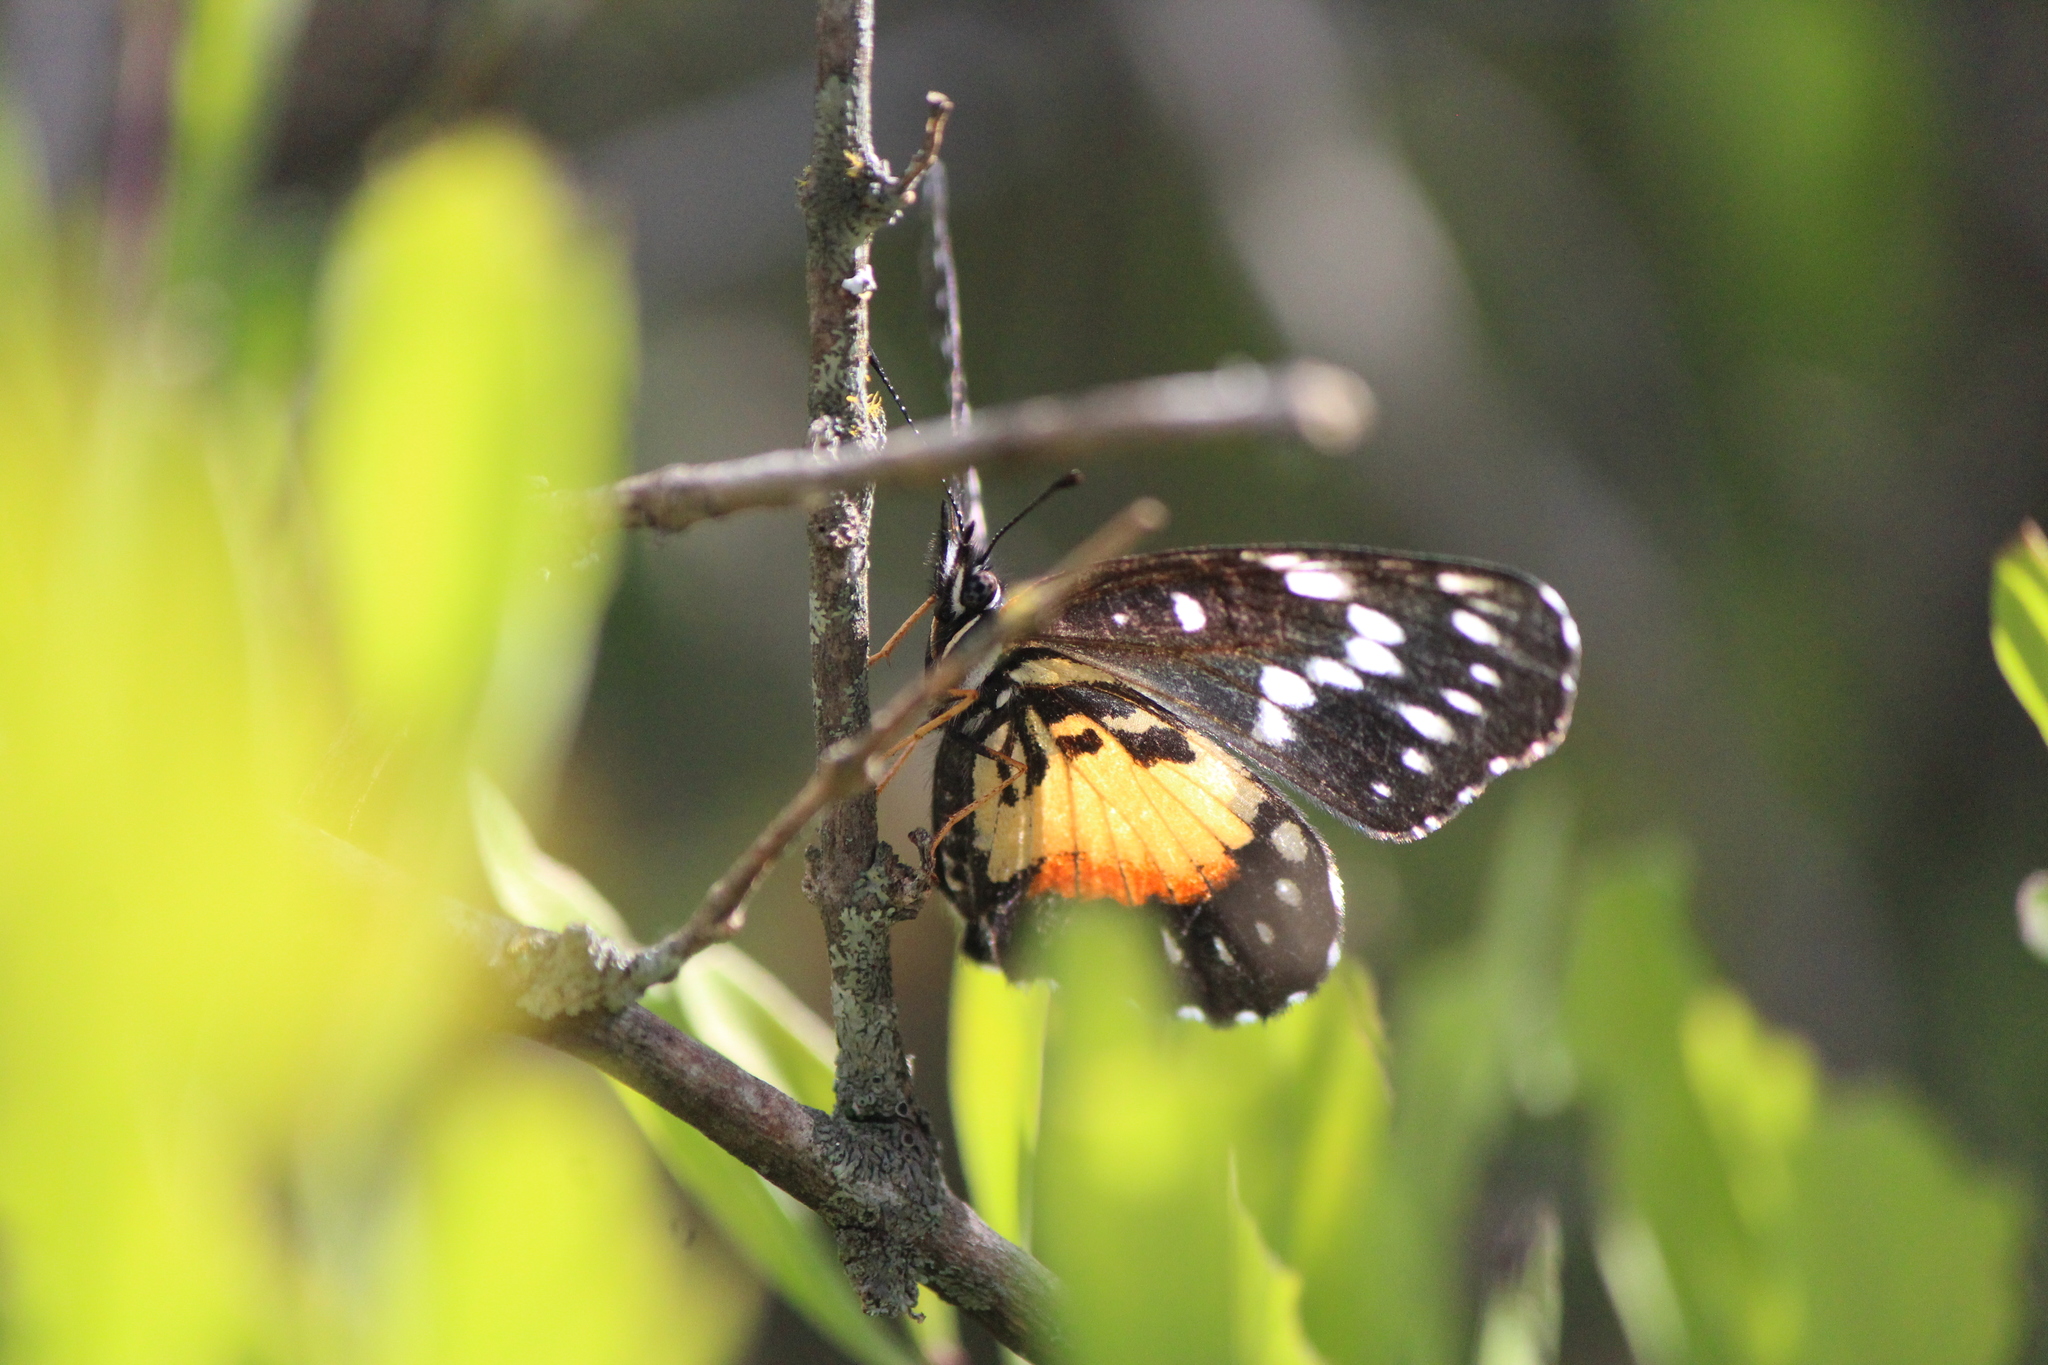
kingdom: Animalia
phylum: Arthropoda
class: Insecta
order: Lepidoptera
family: Nymphalidae
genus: Chlosyne
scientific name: Chlosyne rosita
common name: Rosita patch
